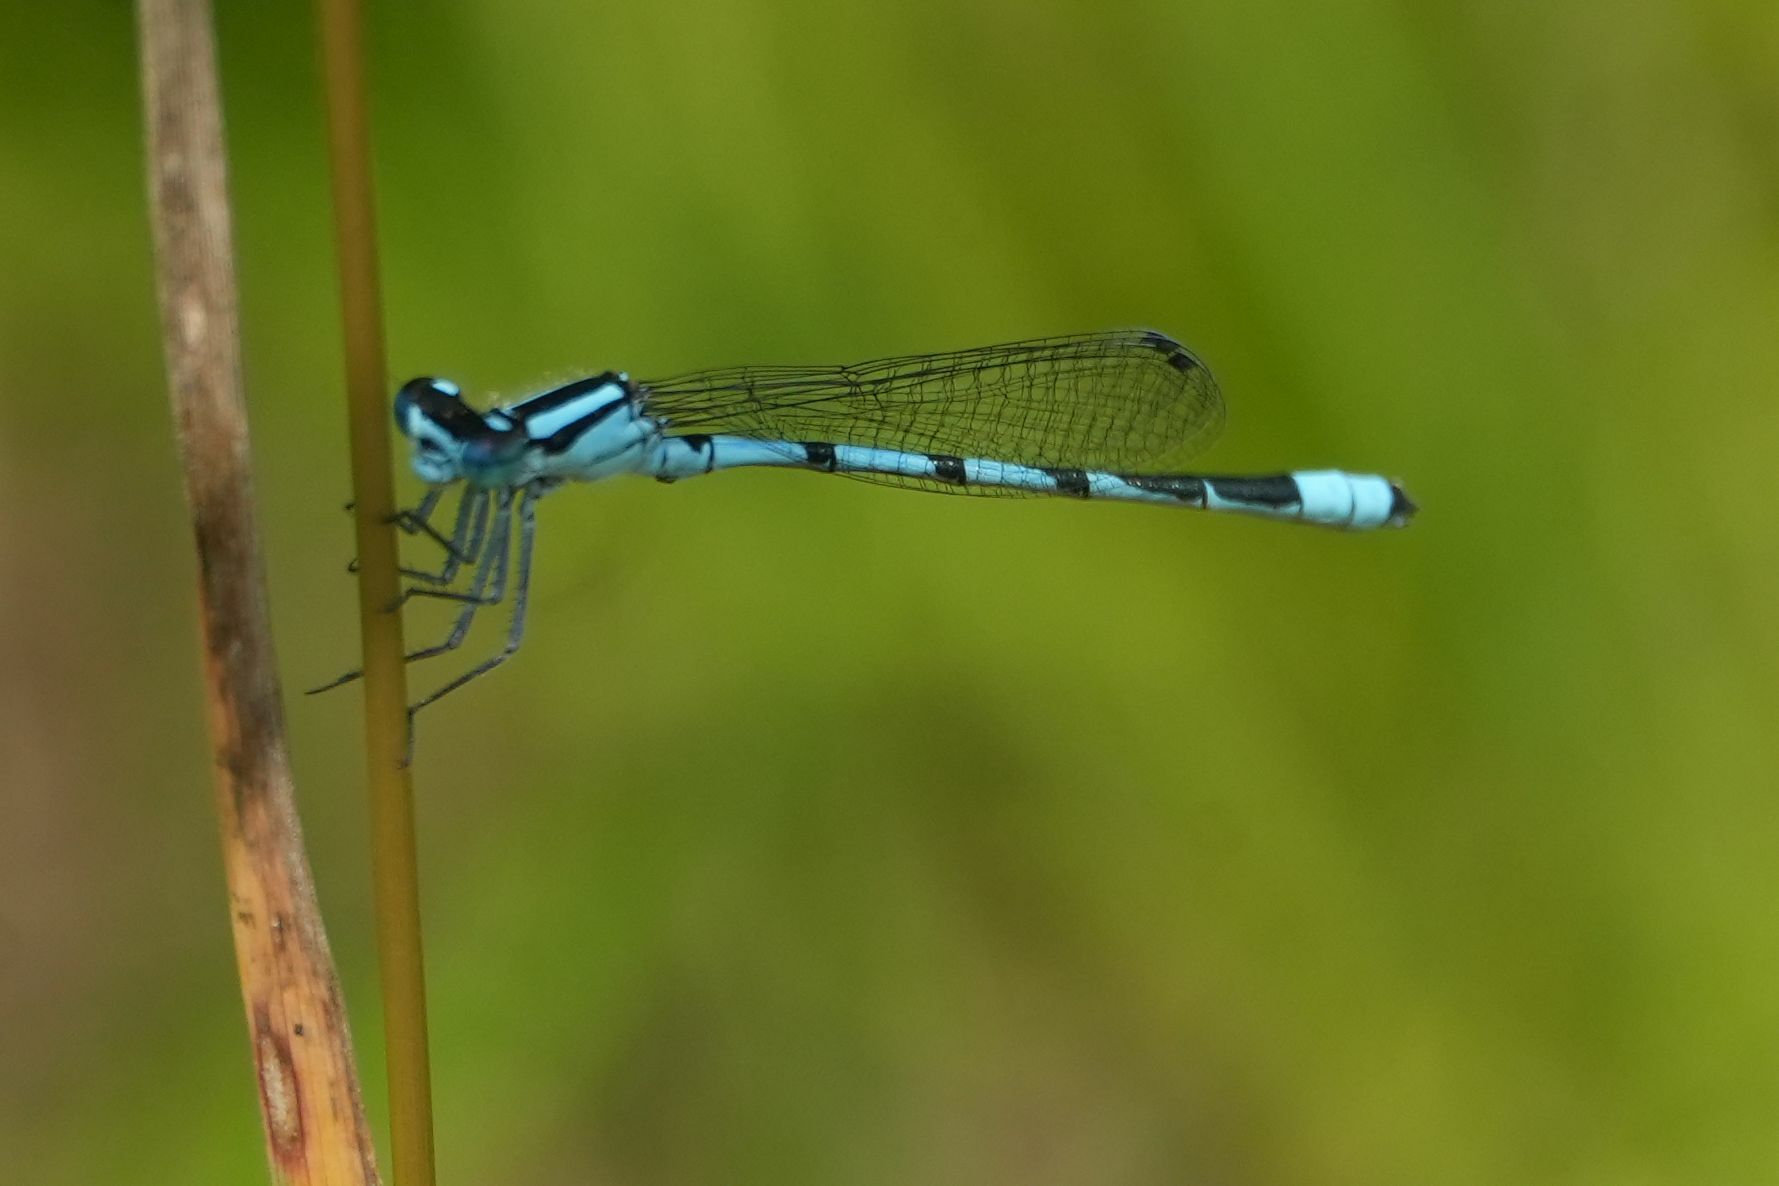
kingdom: Animalia
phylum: Arthropoda
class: Insecta
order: Odonata
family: Coenagrionidae
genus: Enallagma
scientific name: Enallagma ebrium
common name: Marsh bluet
